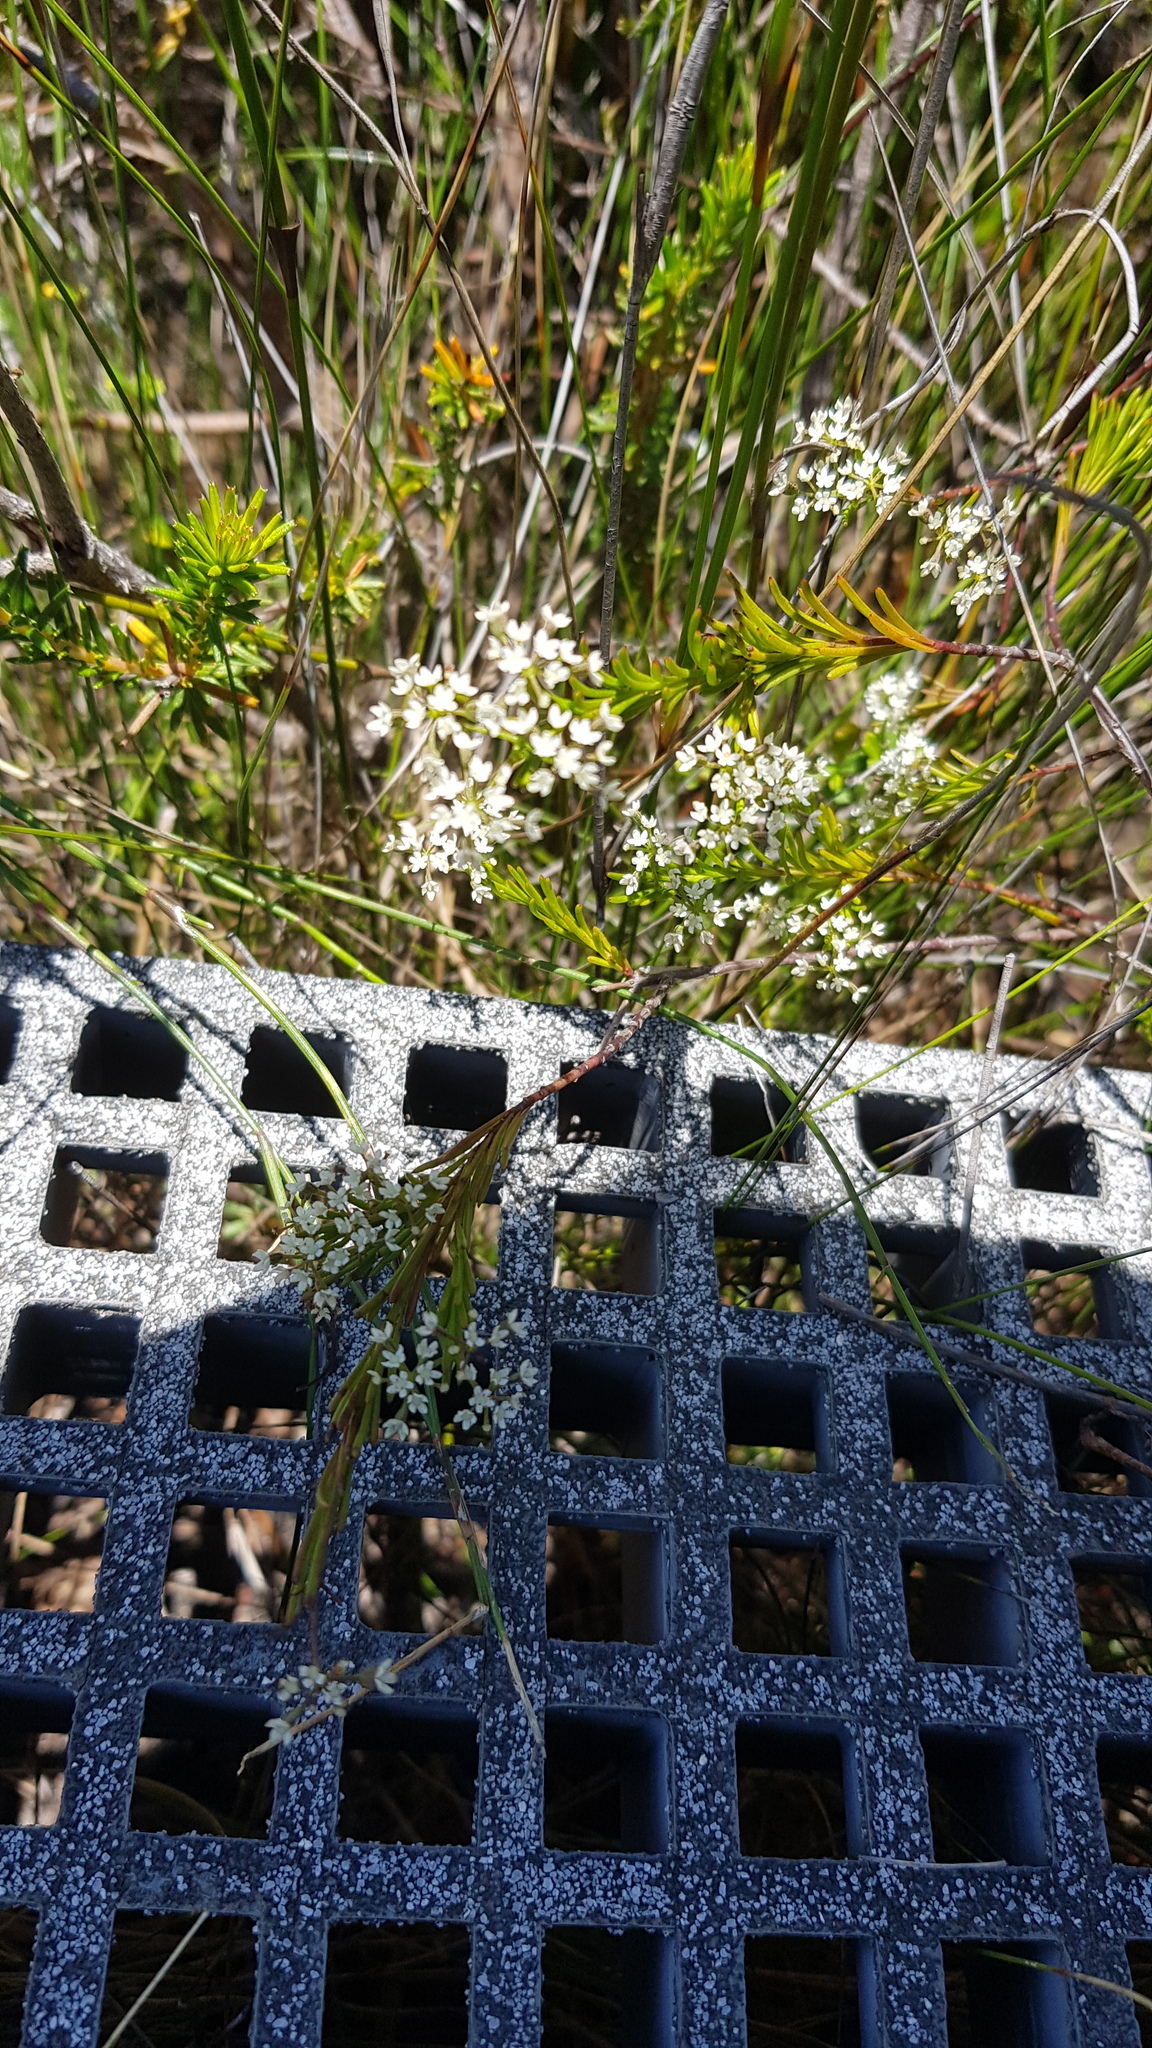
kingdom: Plantae
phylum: Tracheophyta
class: Magnoliopsida
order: Apiales
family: Apiaceae
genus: Platysace
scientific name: Platysace linearifolia
